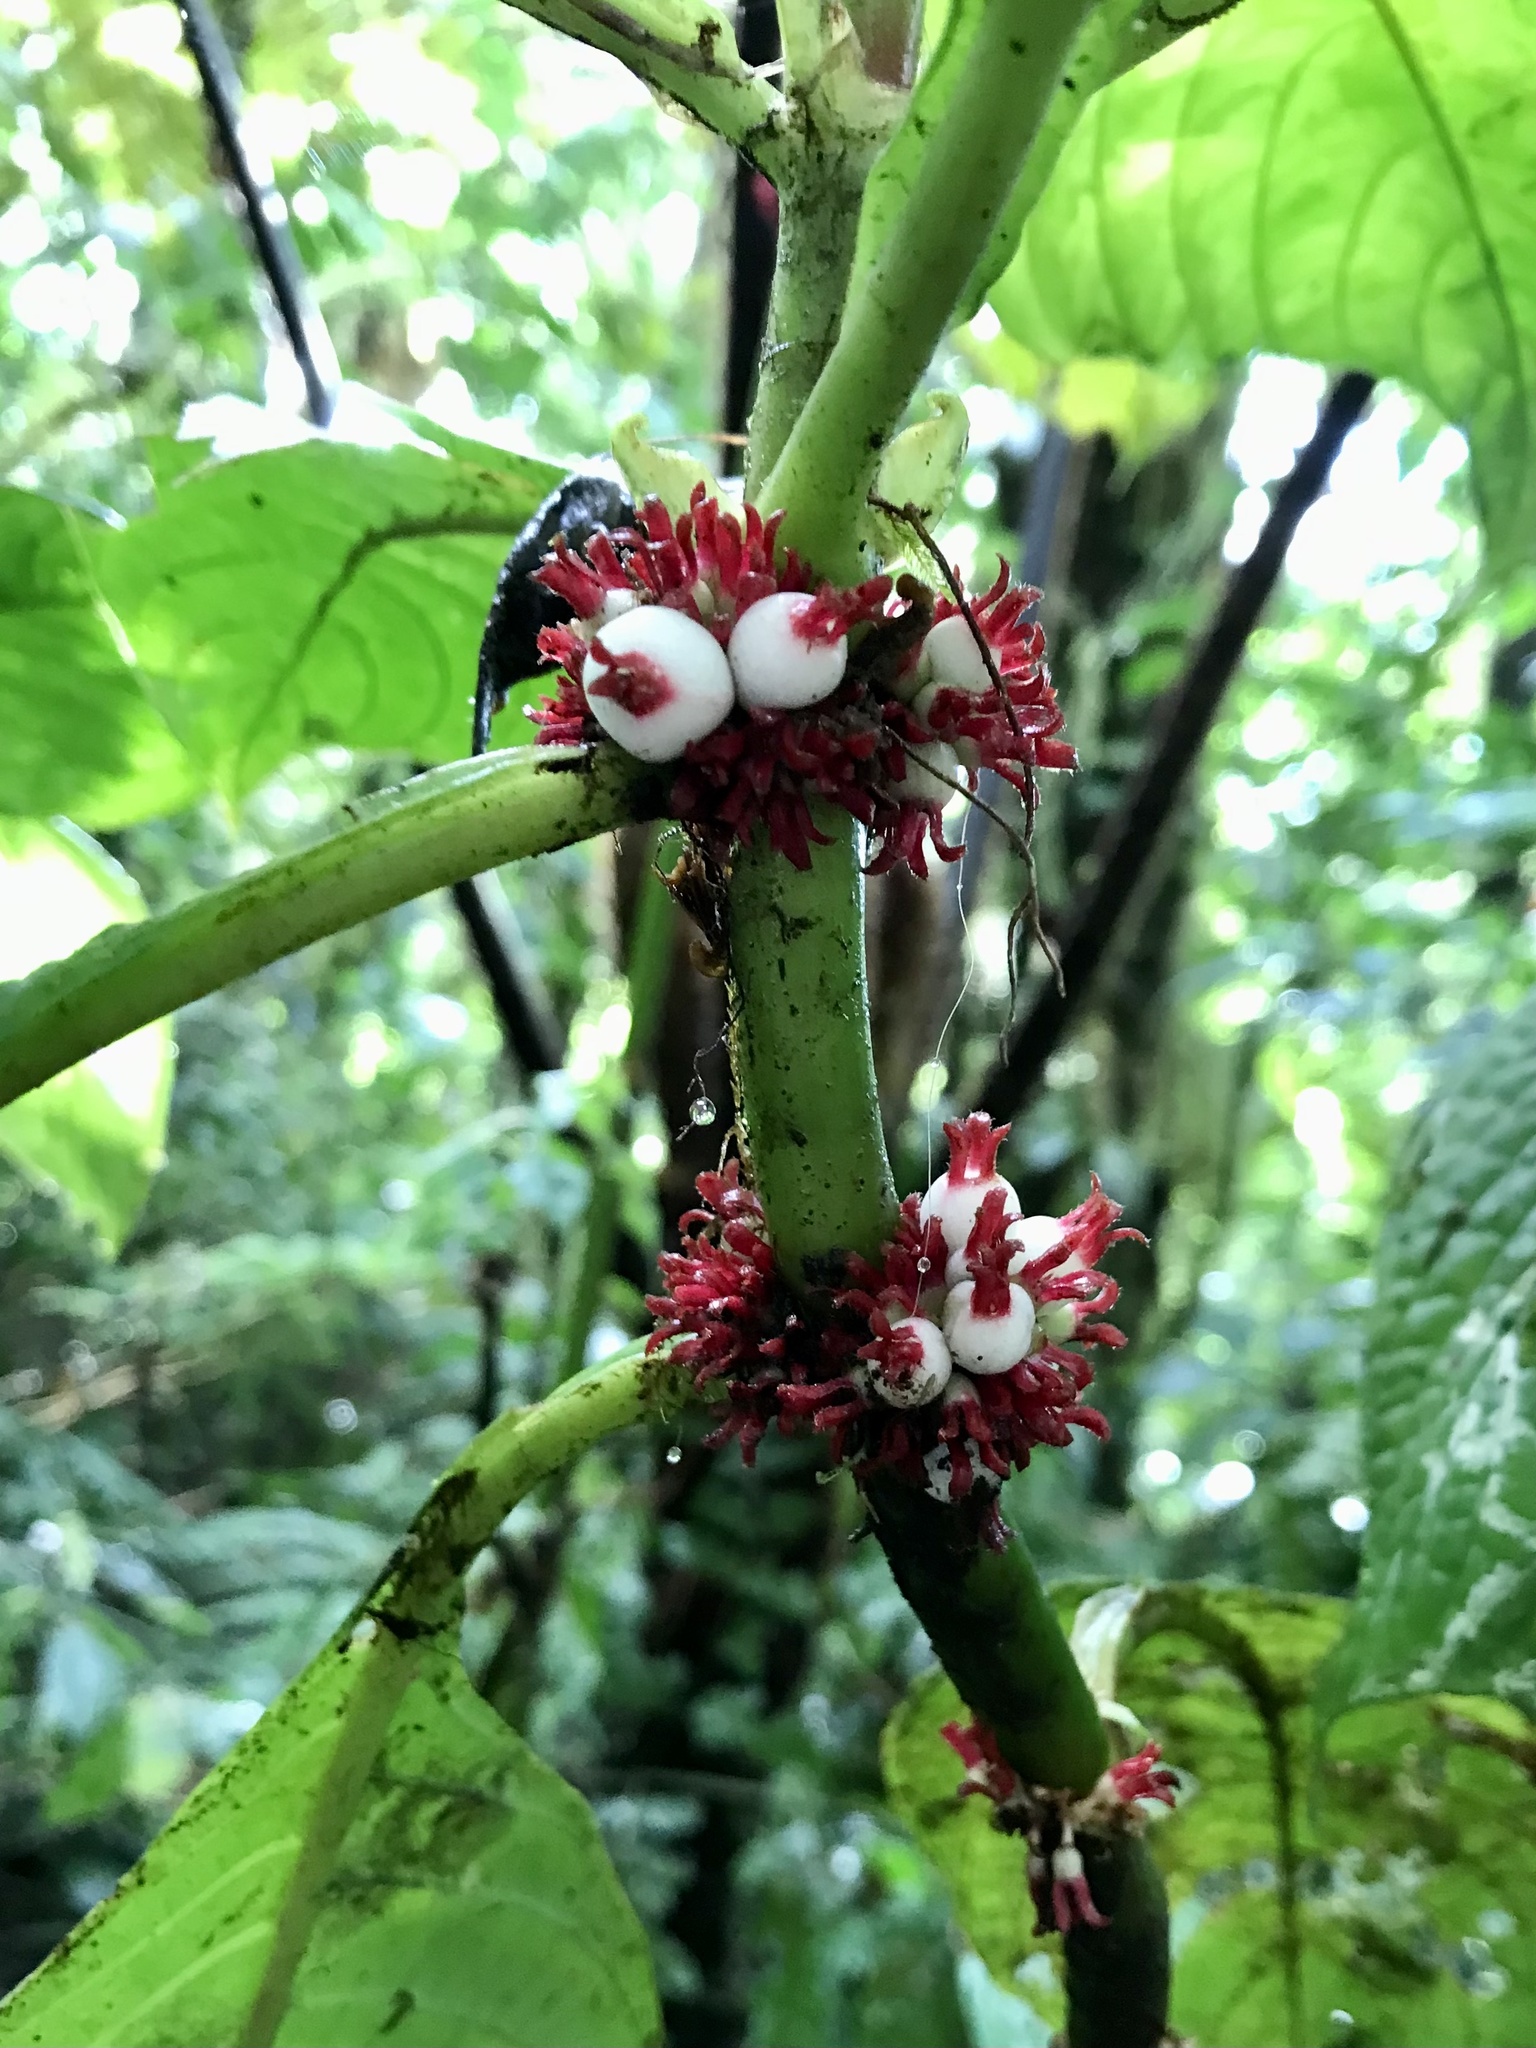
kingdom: Plantae
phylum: Tracheophyta
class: Magnoliopsida
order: Gentianales
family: Rubiaceae
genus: Hoffmannia
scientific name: Hoffmannia congesta
